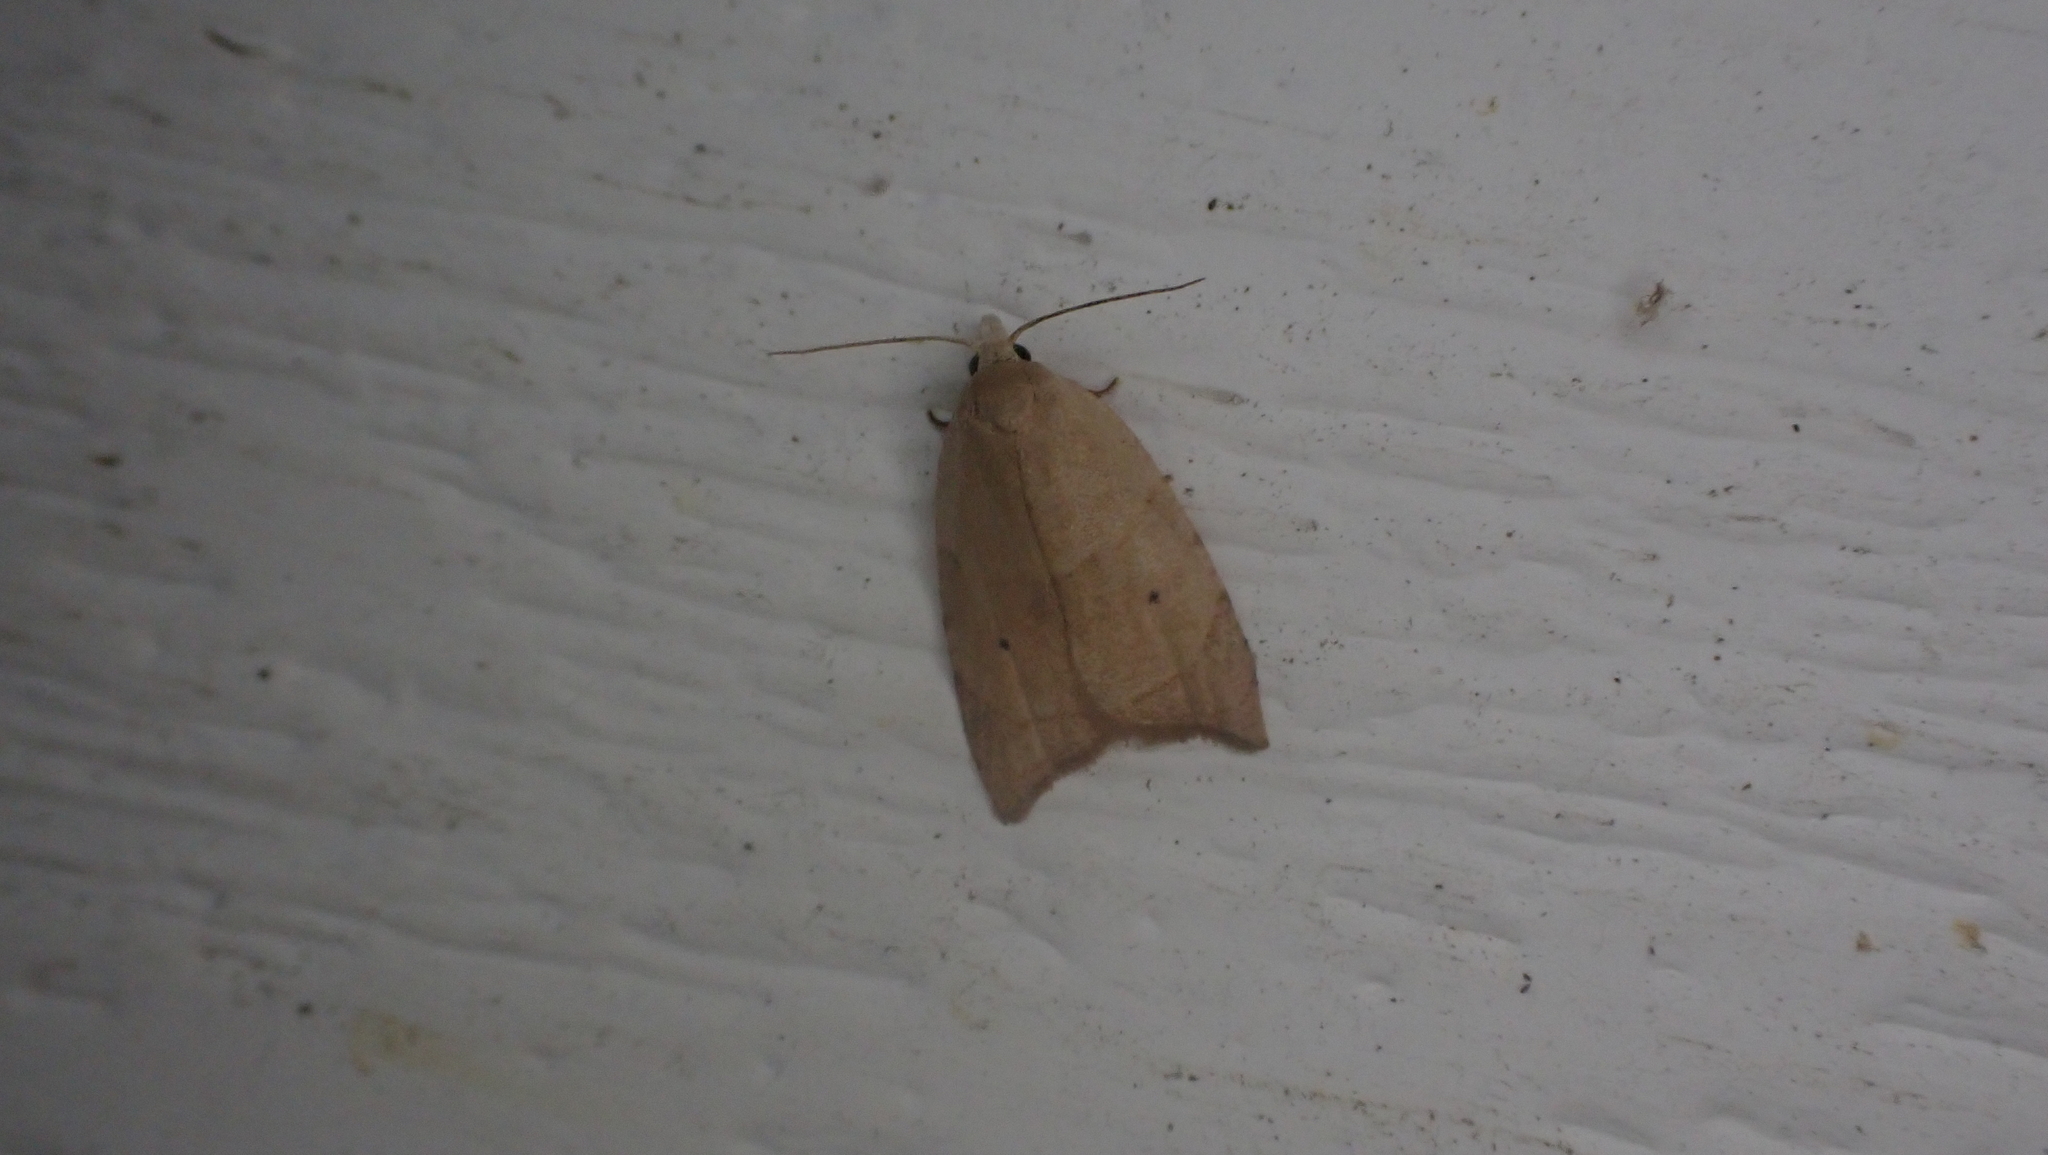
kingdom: Animalia
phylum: Arthropoda
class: Insecta
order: Lepidoptera
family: Tortricidae
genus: Coelostathma
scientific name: Coelostathma discopunctana
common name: Batman moth
